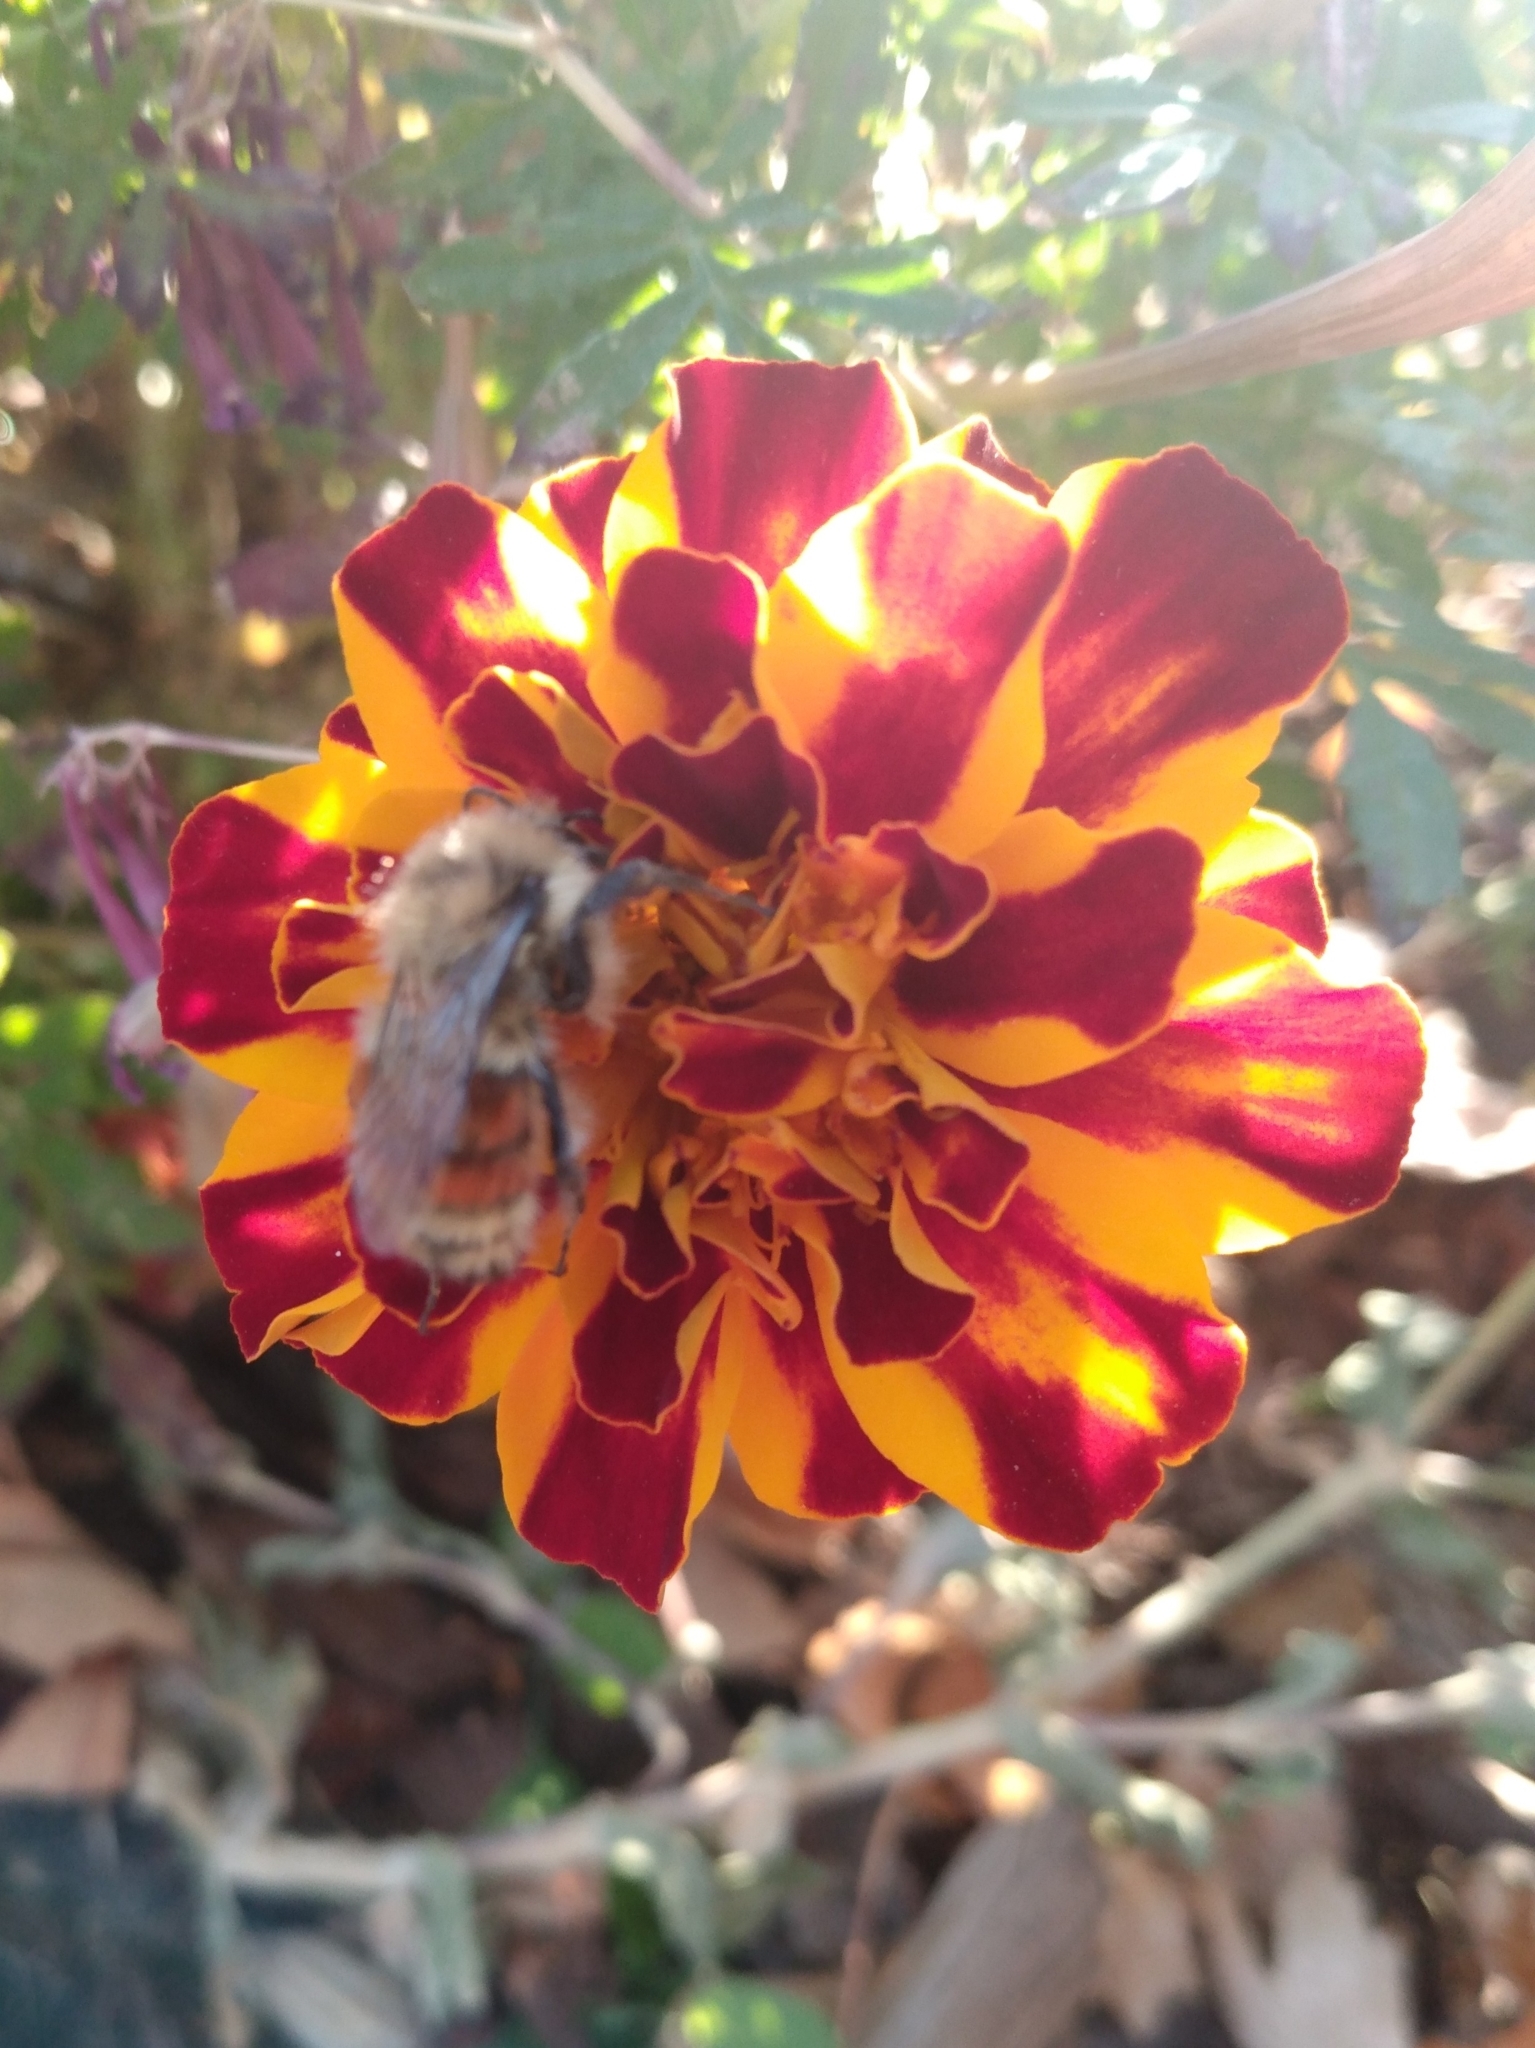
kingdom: Animalia
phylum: Arthropoda
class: Insecta
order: Hymenoptera
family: Apidae
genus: Bombus
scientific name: Bombus huntii
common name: Hunt bumble bee
